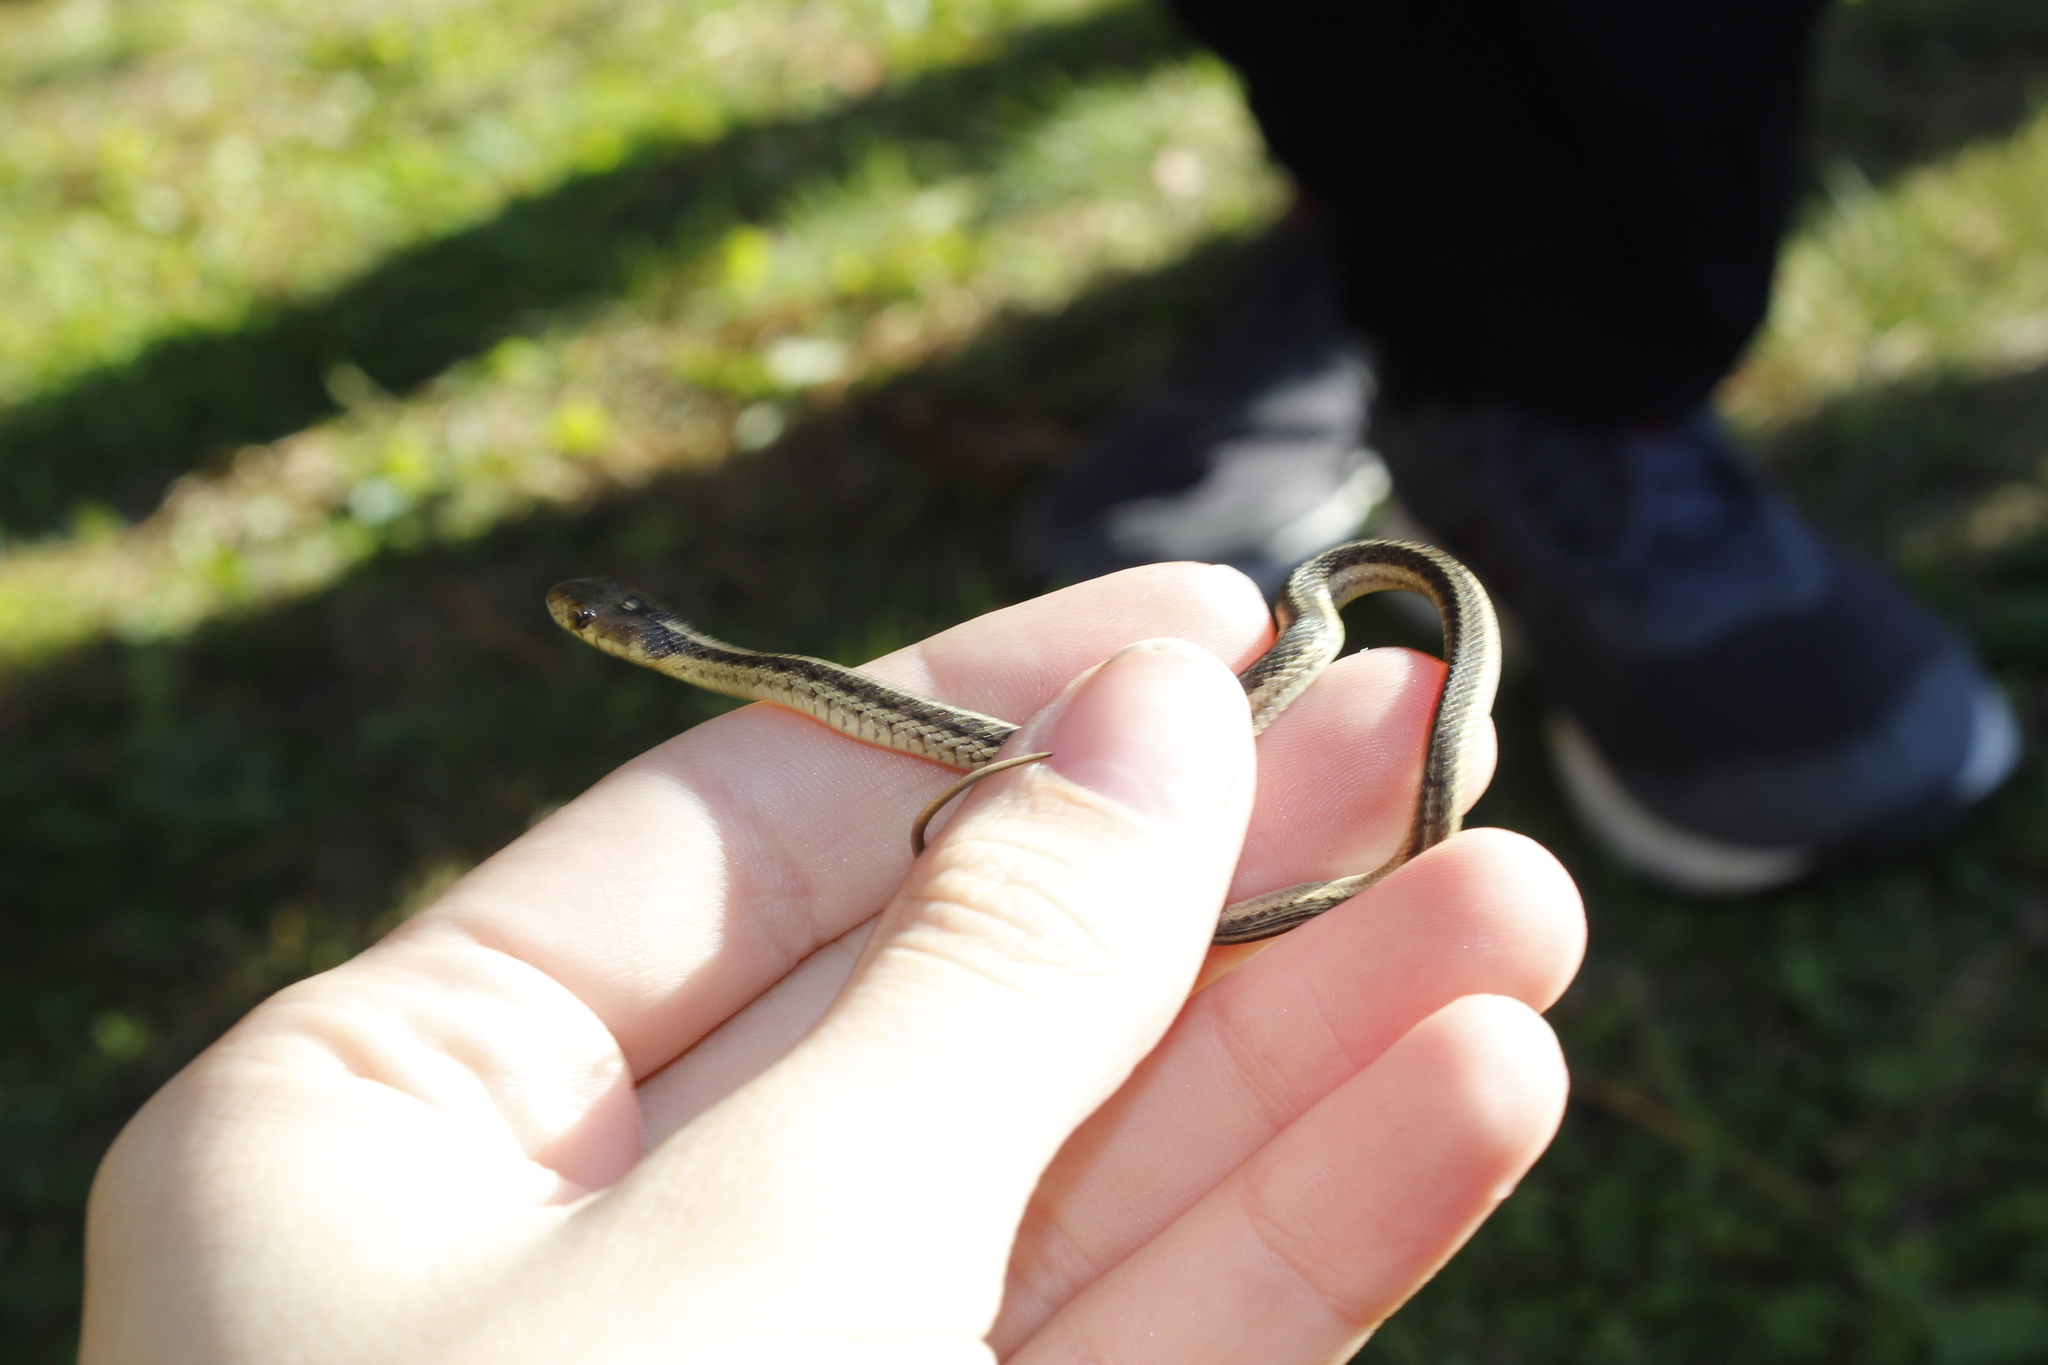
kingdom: Animalia
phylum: Chordata
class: Squamata
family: Colubridae
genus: Thamnophis
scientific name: Thamnophis sirtalis
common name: Common garter snake
